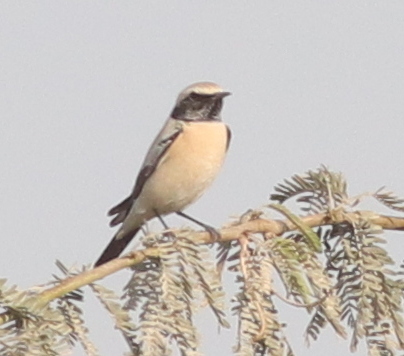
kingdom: Animalia
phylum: Chordata
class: Aves
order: Passeriformes
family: Muscicapidae
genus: Oenanthe
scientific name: Oenanthe deserti
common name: Desert wheatear
